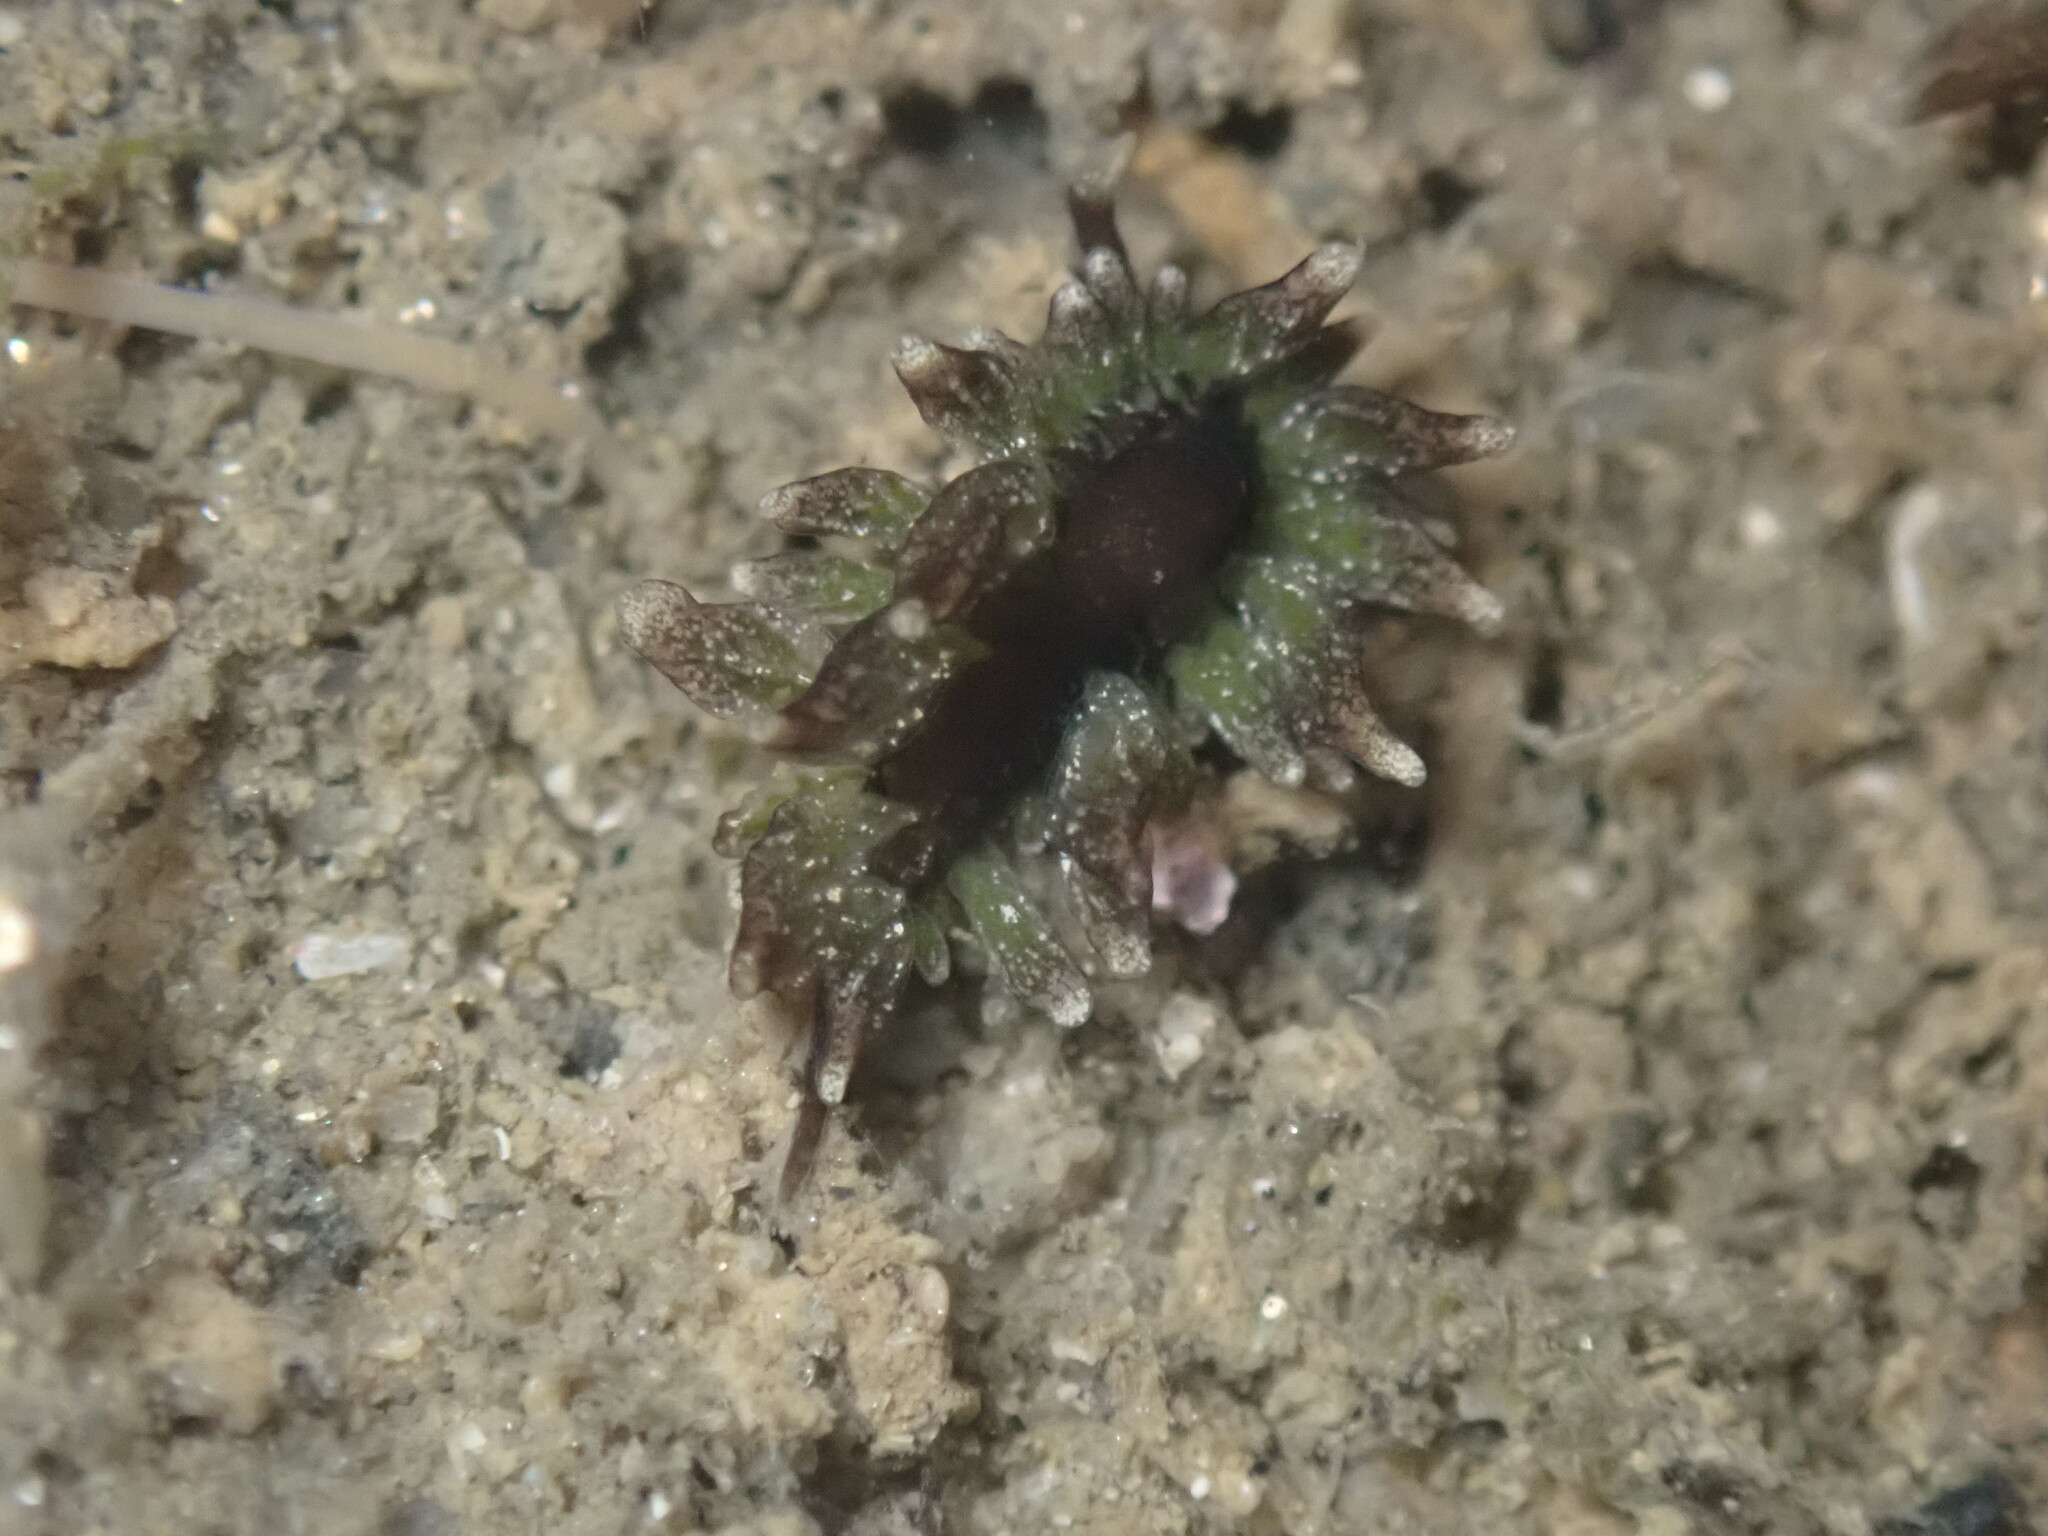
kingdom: Animalia
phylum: Mollusca
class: Gastropoda
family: Hermaeidae
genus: Aplysiopsis
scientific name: Aplysiopsis enteromorphae
